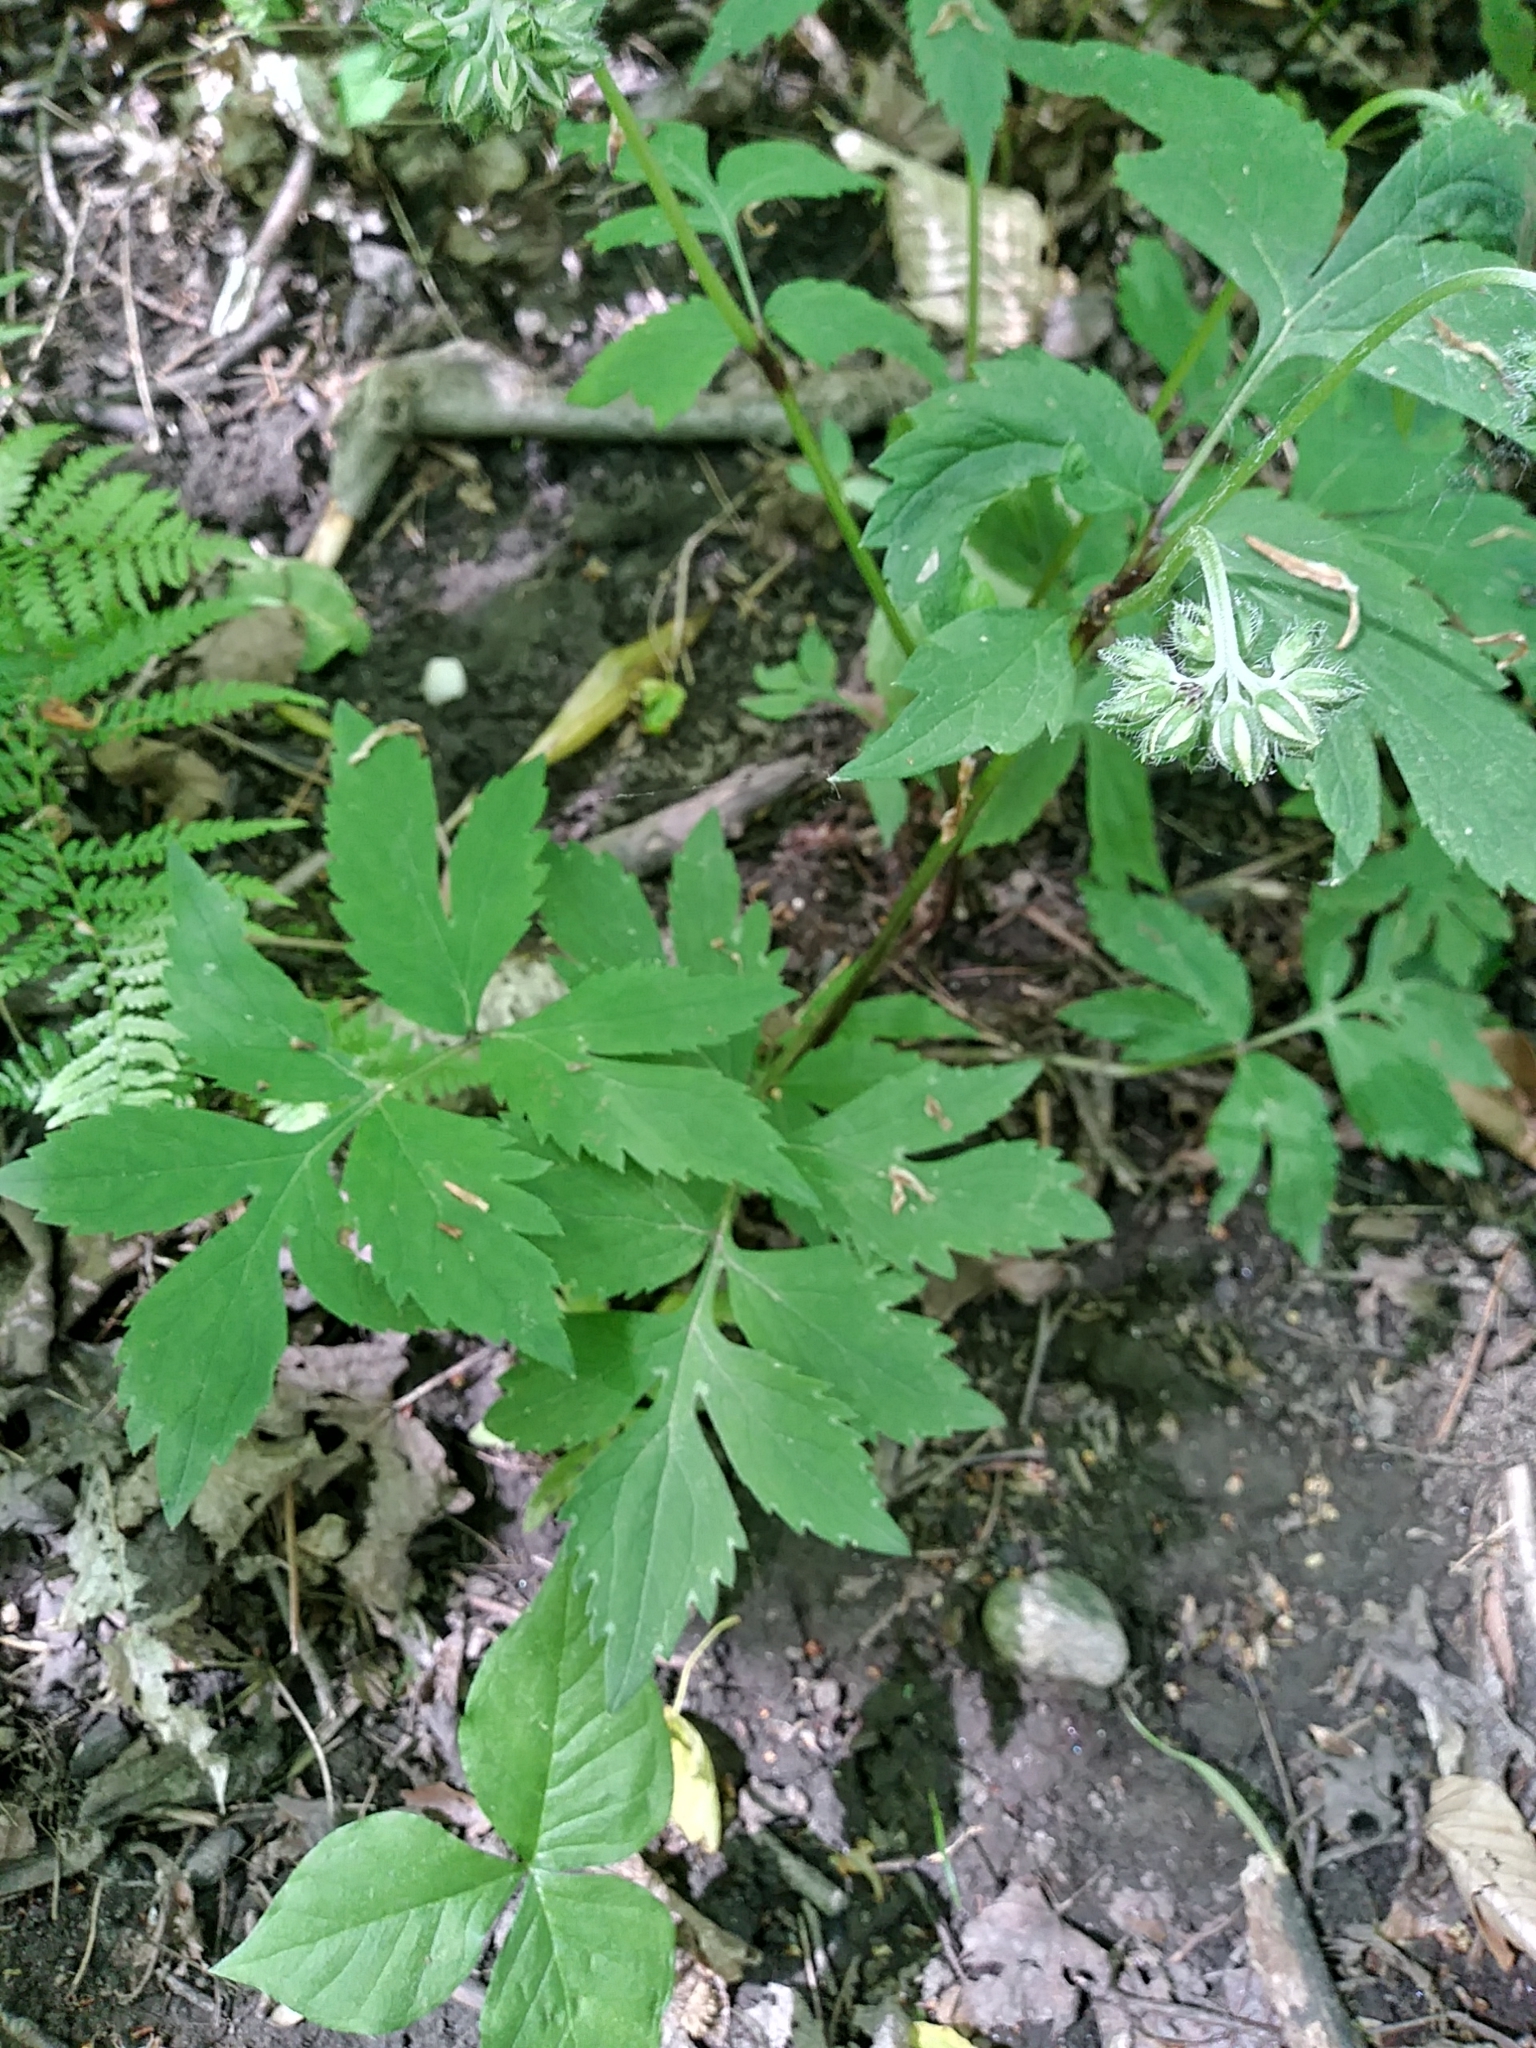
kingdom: Plantae
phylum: Tracheophyta
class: Magnoliopsida
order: Boraginales
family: Hydrophyllaceae
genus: Hydrophyllum
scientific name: Hydrophyllum virginianum
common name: Virginia waterleaf
